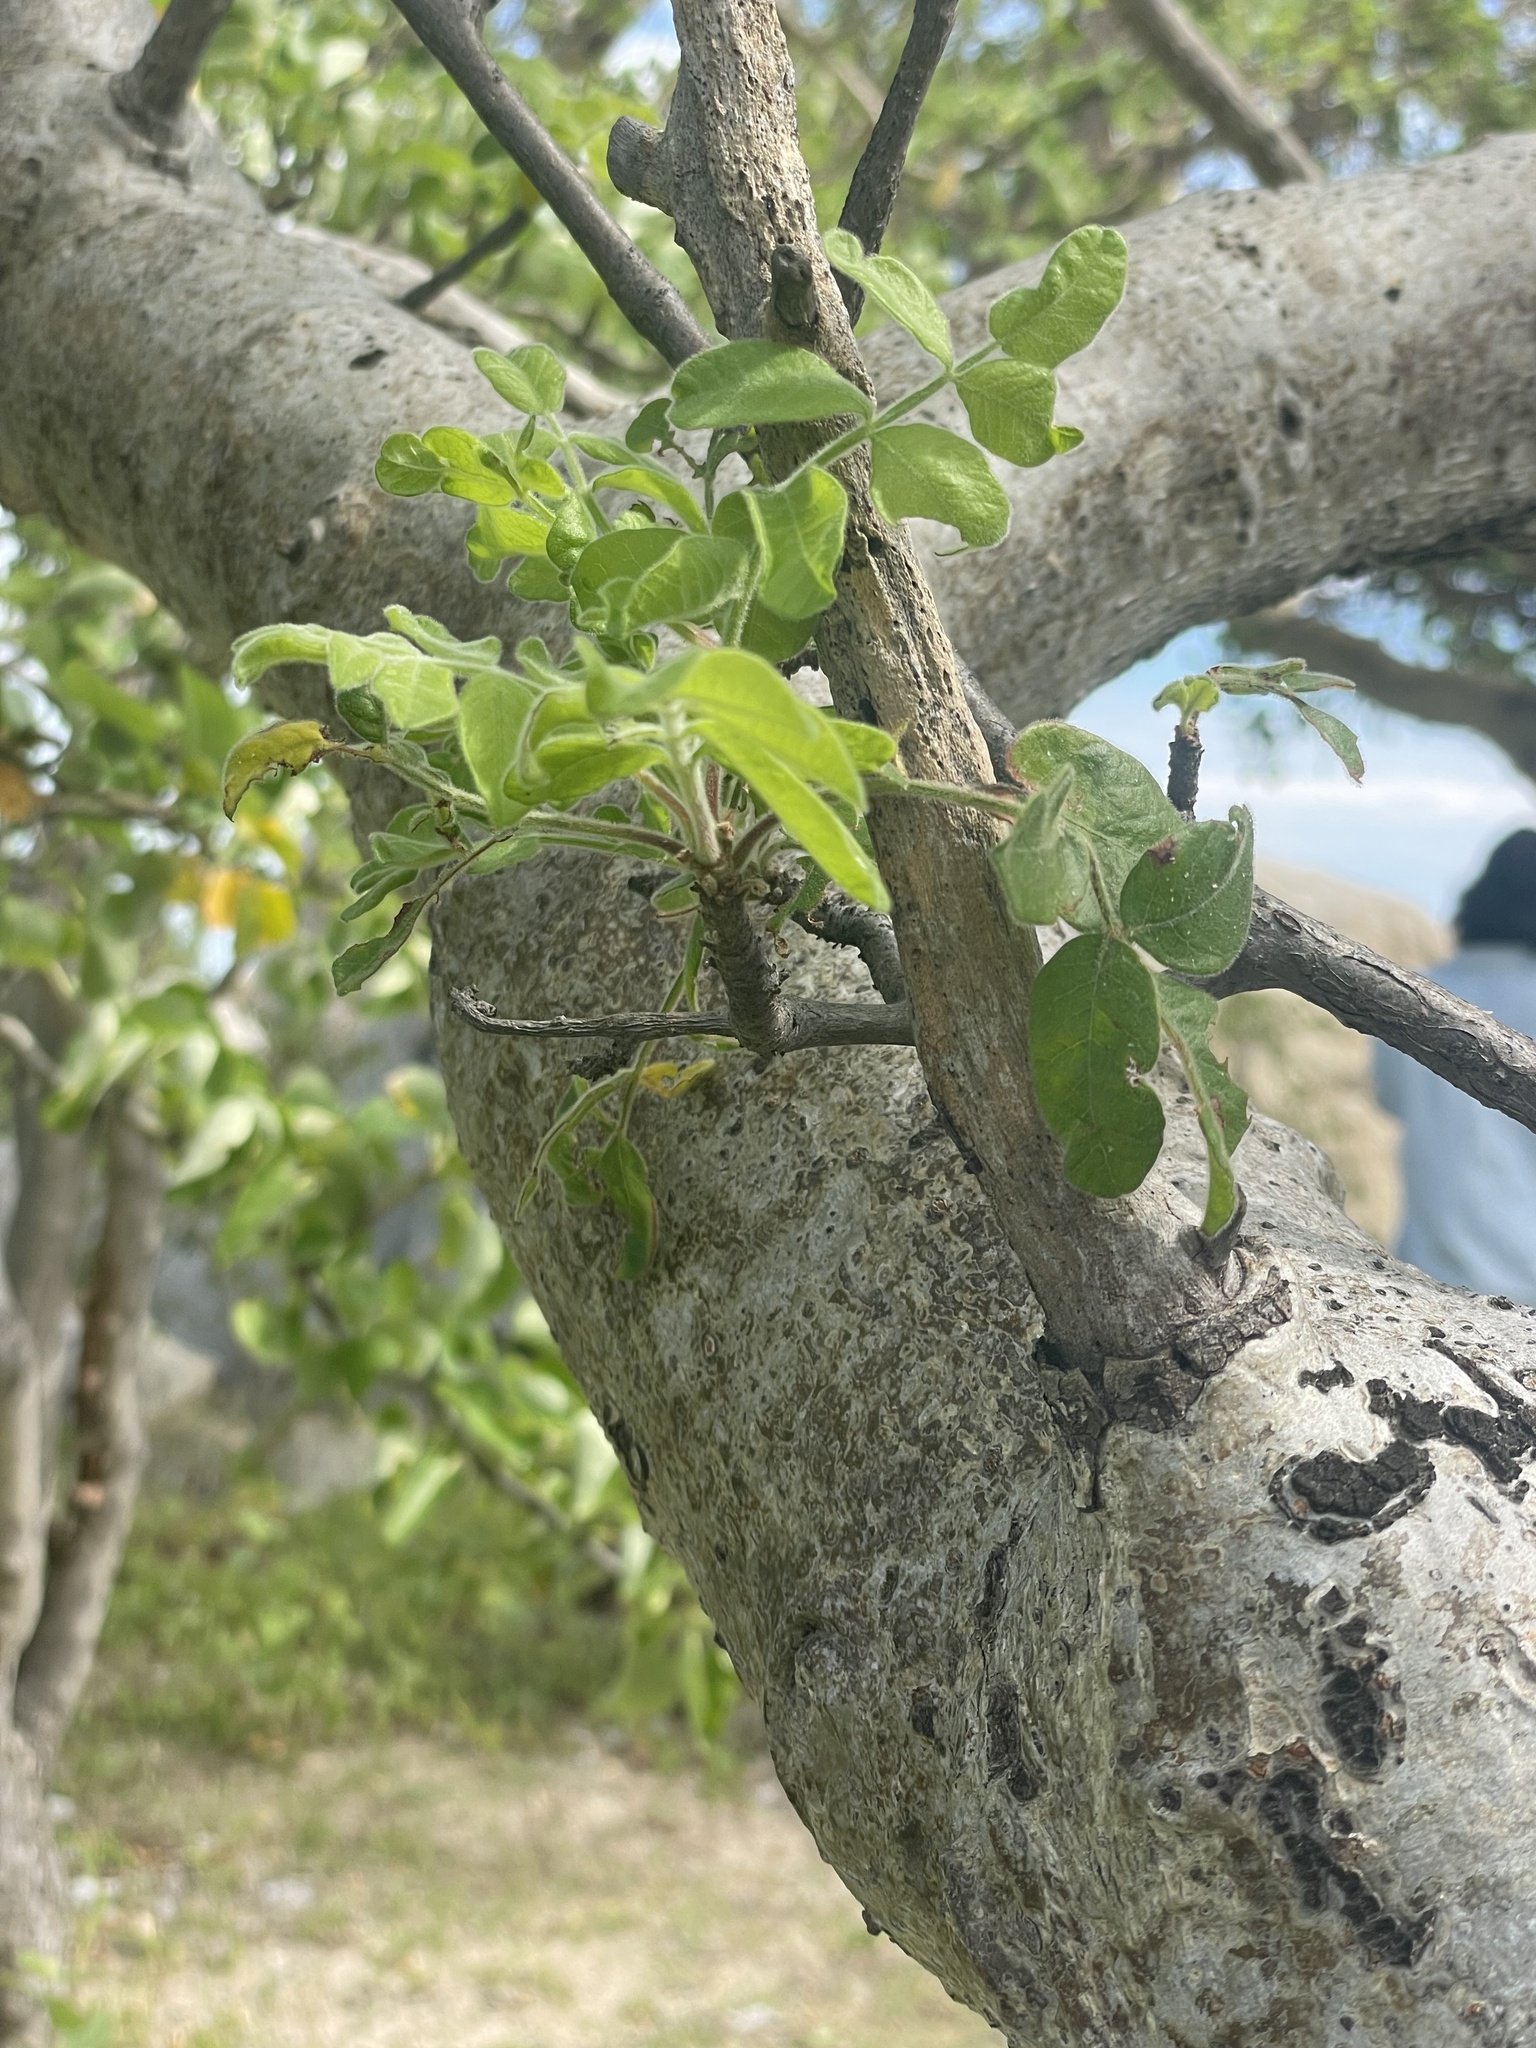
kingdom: Plantae
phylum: Tracheophyta
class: Magnoliopsida
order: Sapindales
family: Anacardiaceae
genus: Cyrtocarpa
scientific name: Cyrtocarpa edulis
